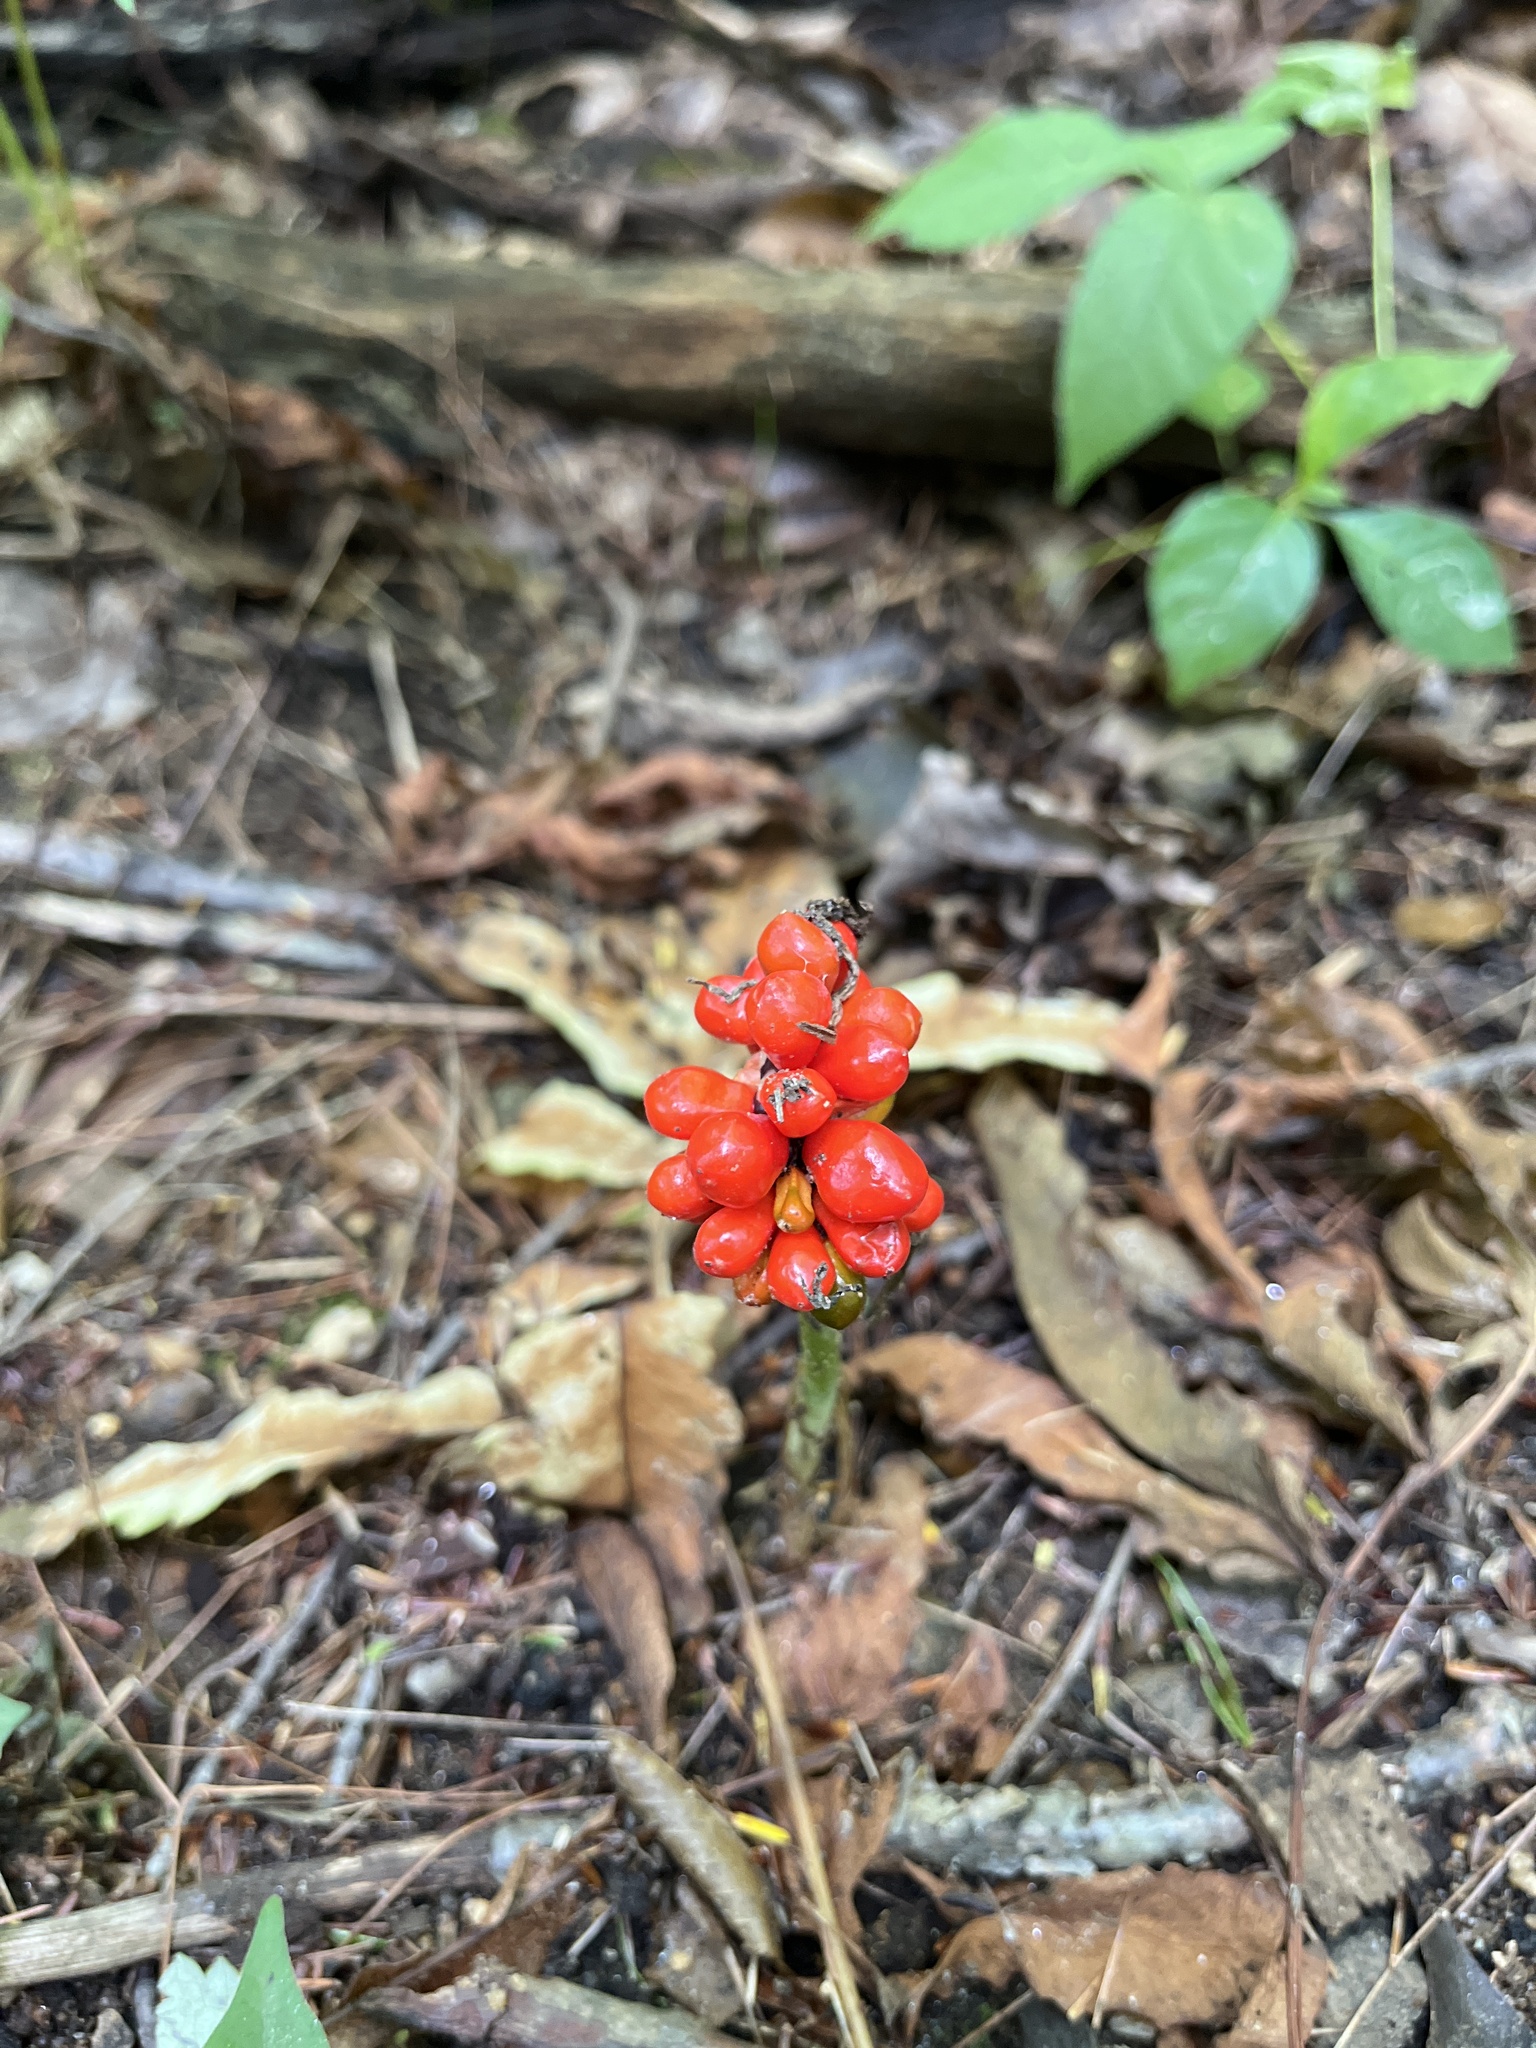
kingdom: Plantae
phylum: Tracheophyta
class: Liliopsida
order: Alismatales
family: Araceae
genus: Arisaema
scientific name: Arisaema triphyllum
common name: Jack-in-the-pulpit
